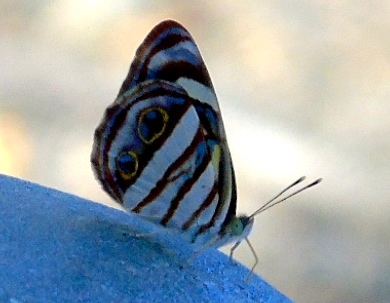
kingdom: Animalia
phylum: Arthropoda
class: Insecta
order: Lepidoptera
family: Nymphalidae
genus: Dynamine
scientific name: Dynamine mylitta
